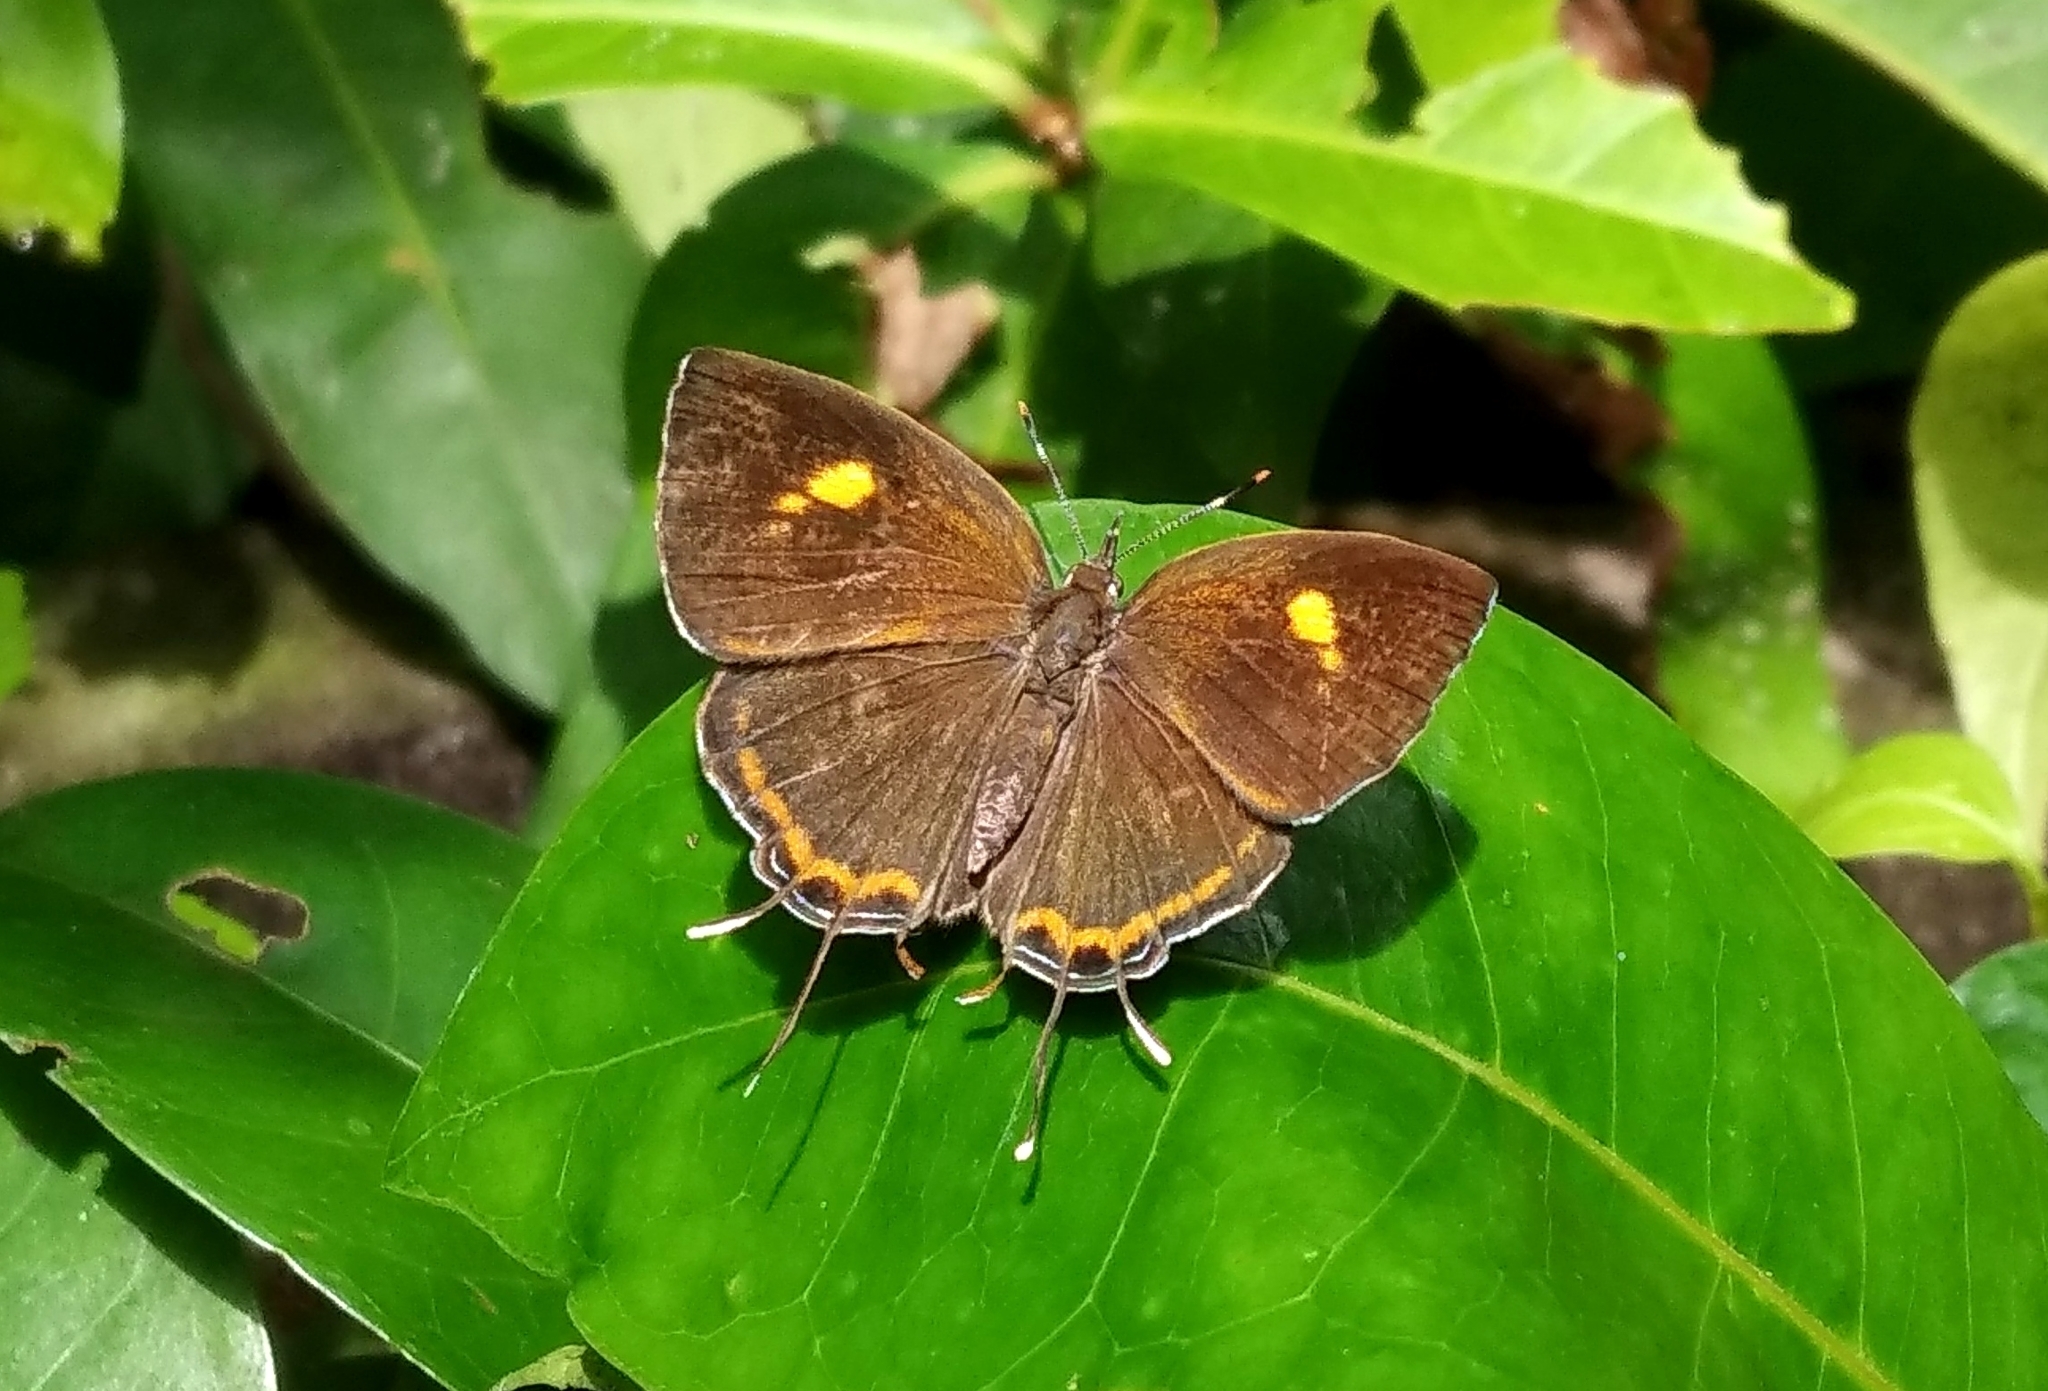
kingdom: Animalia
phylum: Arthropoda
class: Insecta
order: Lepidoptera
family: Lycaenidae
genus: Rathinda
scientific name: Rathinda amor
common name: Monkey puzzle
